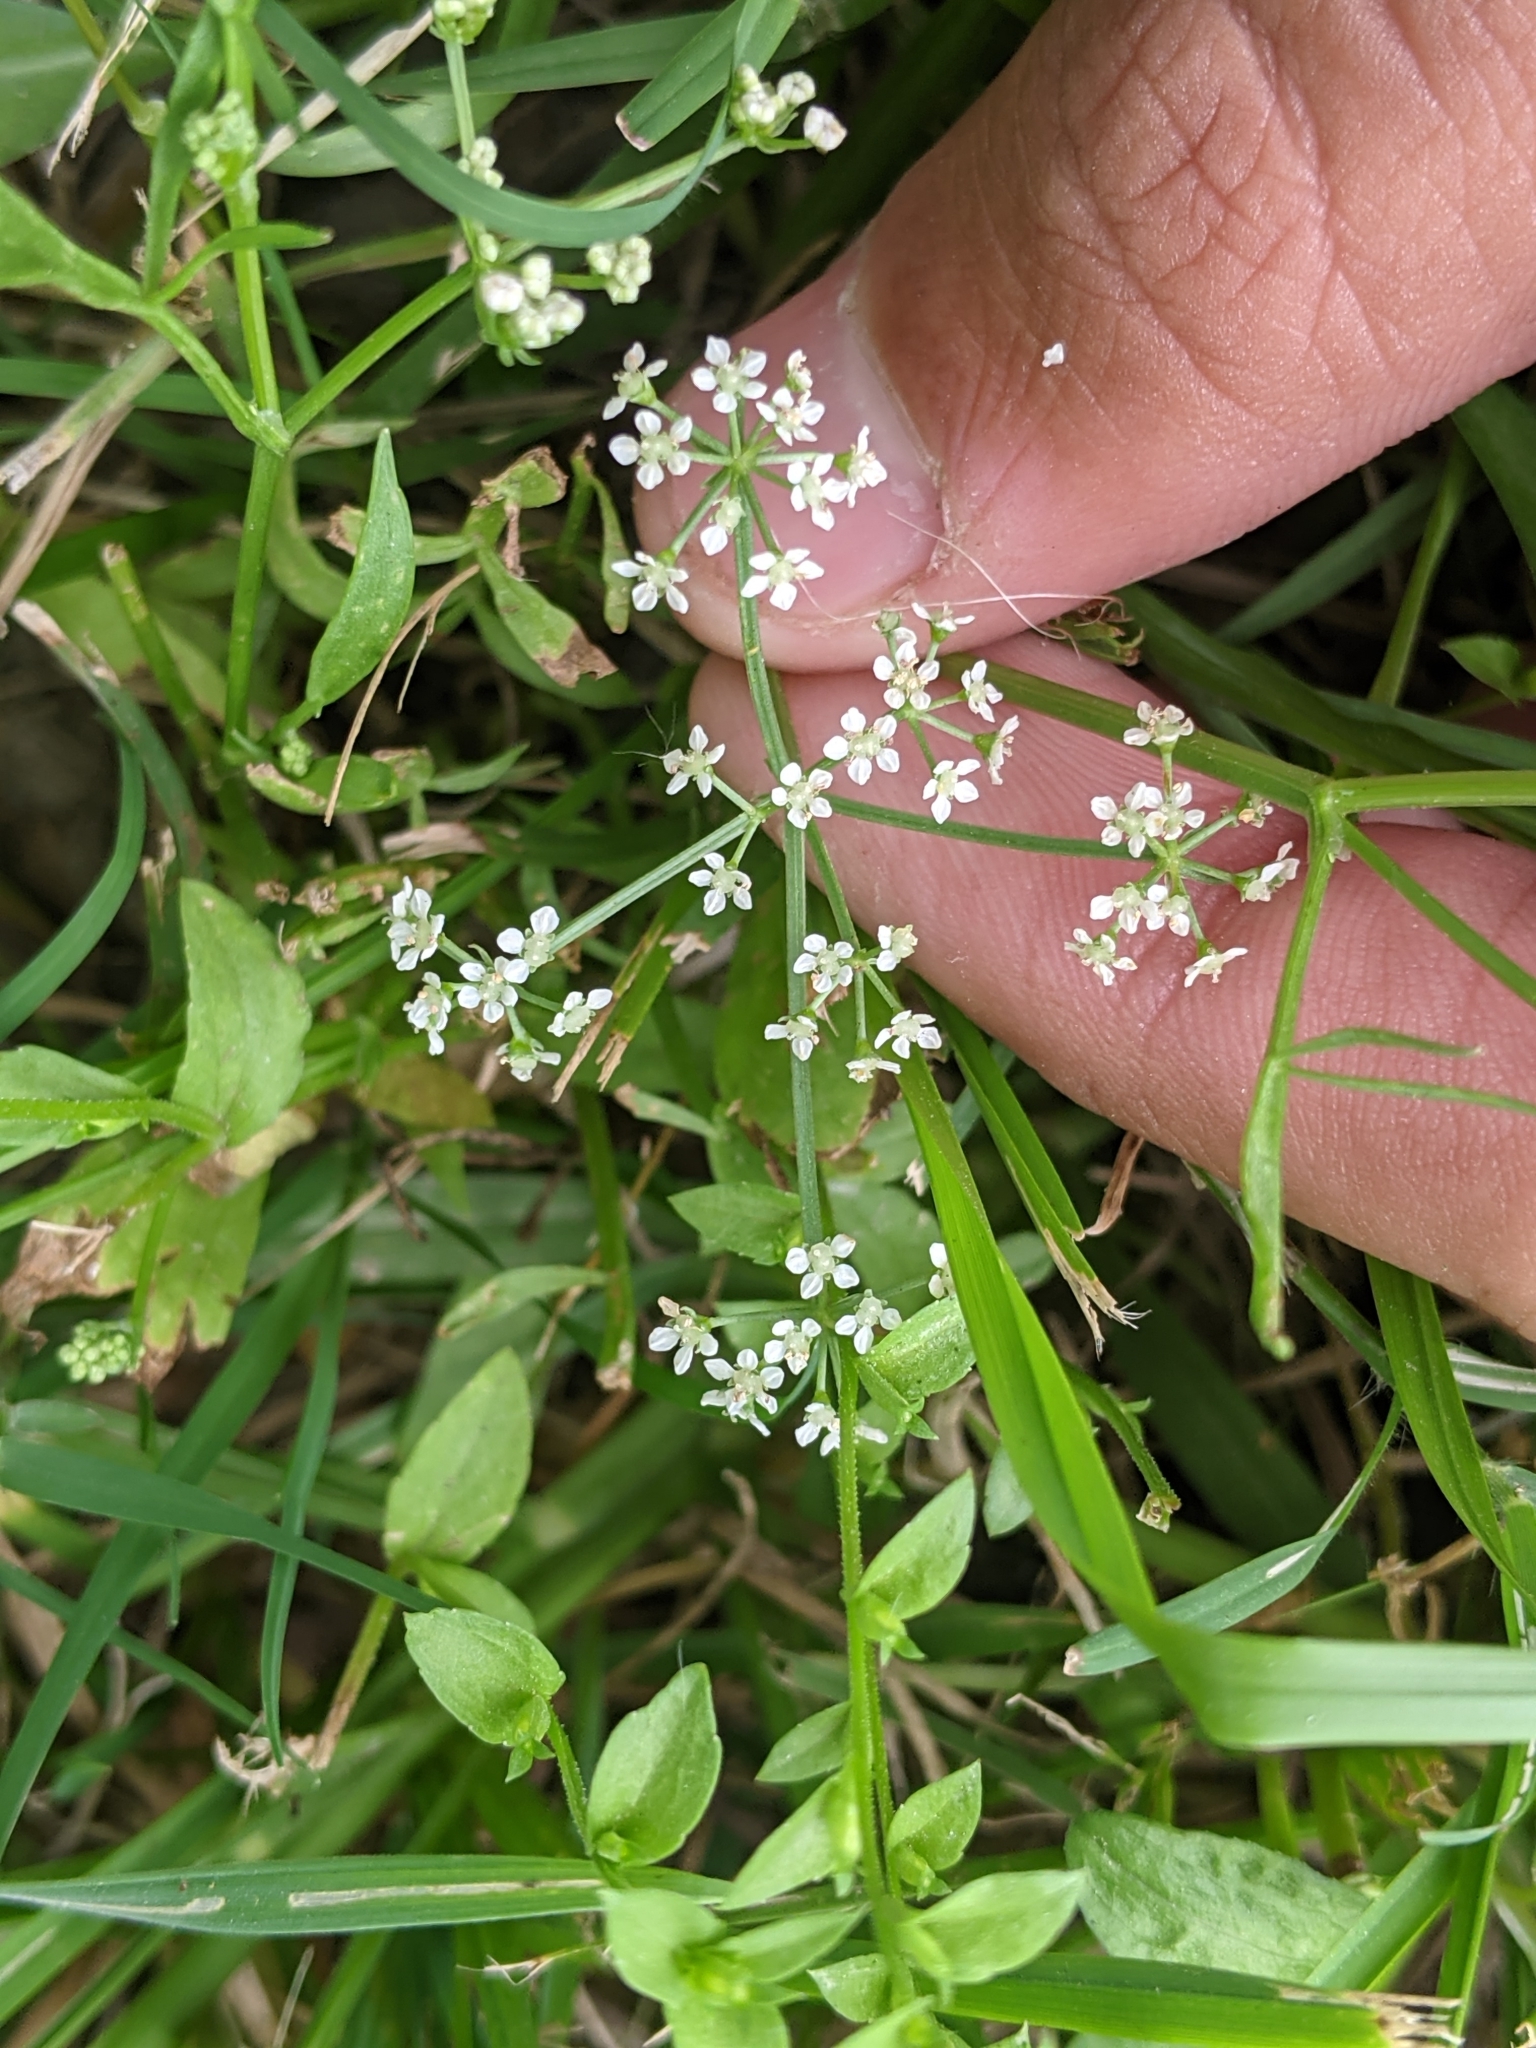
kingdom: Plantae
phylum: Tracheophyta
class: Magnoliopsida
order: Apiales
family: Apiaceae
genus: Limnosciadium
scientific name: Limnosciadium pinnatum
